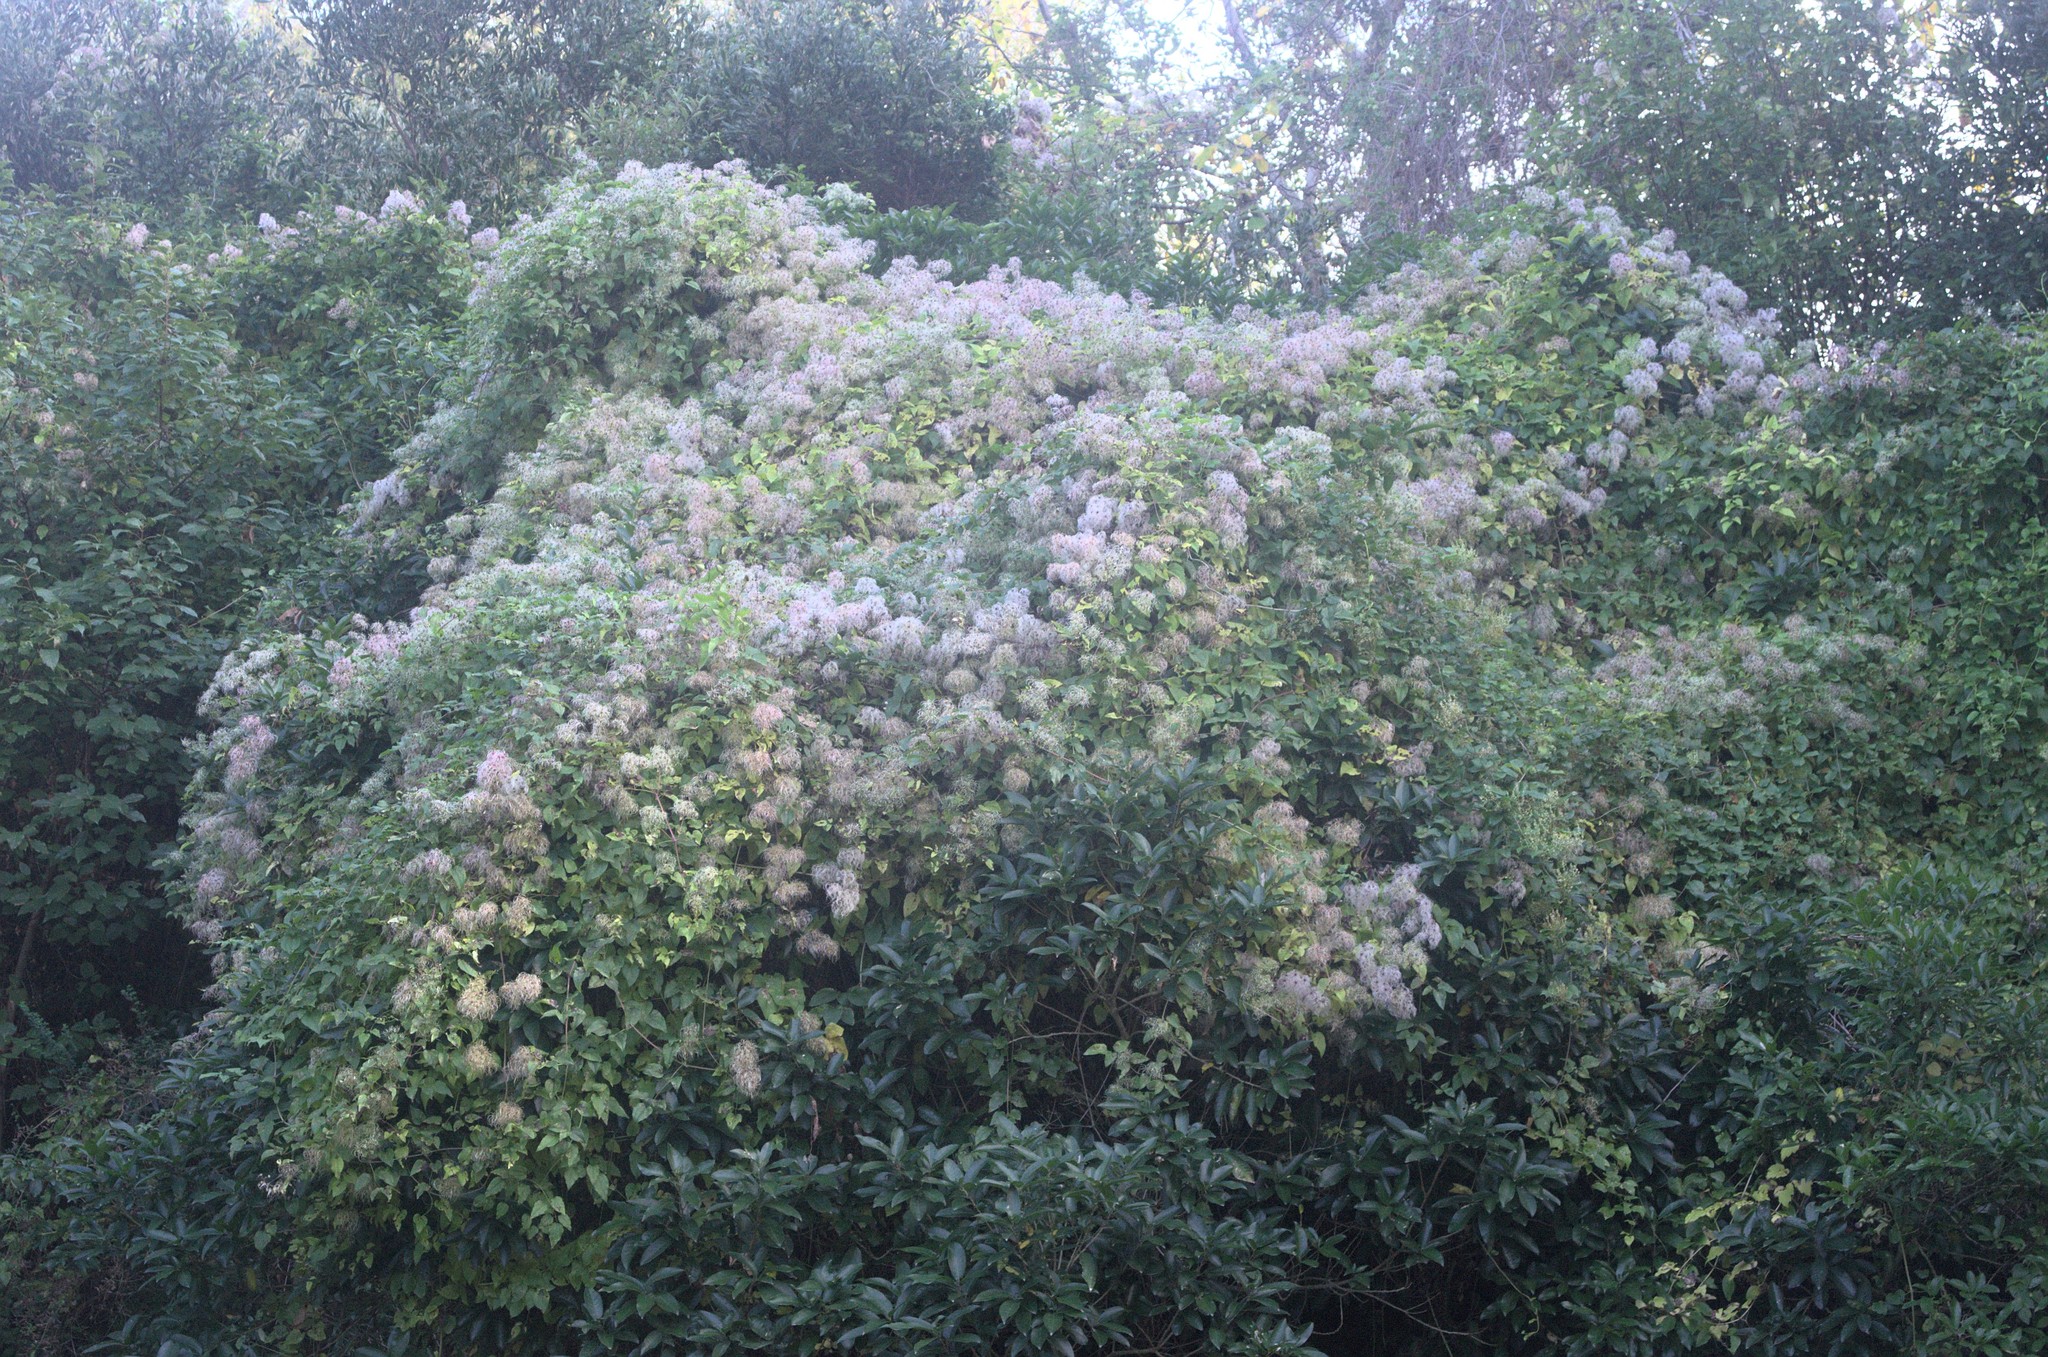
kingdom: Plantae
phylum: Tracheophyta
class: Magnoliopsida
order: Ranunculales
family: Ranunculaceae
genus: Clematis
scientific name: Clematis vitalba
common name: Evergreen clematis
